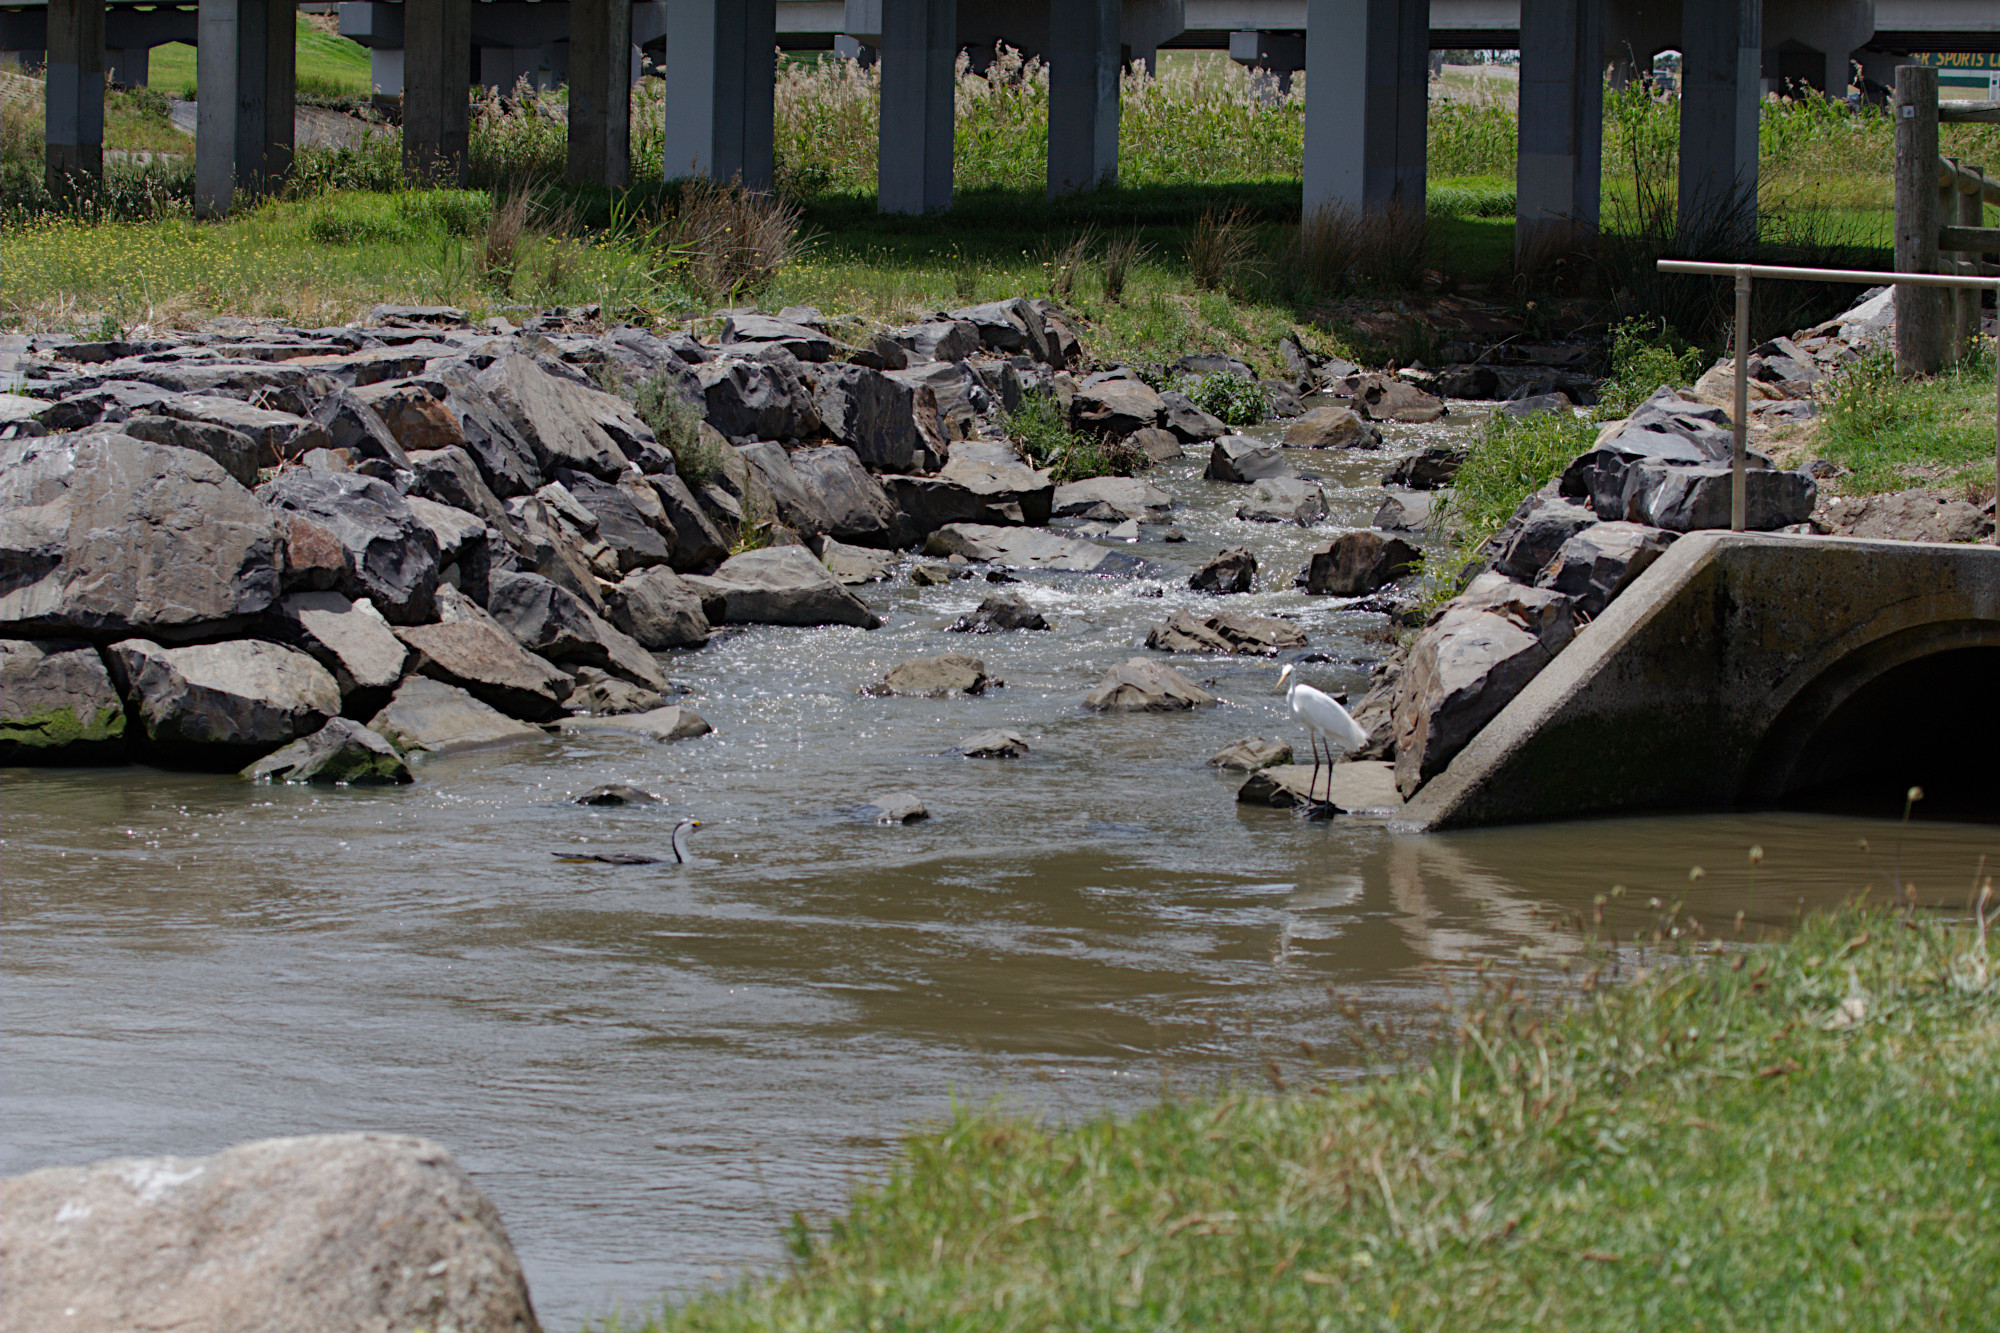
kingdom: Animalia
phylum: Chordata
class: Aves
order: Suliformes
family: Phalacrocoracidae
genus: Phalacrocorax
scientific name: Phalacrocorax varius
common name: Pied cormorant
